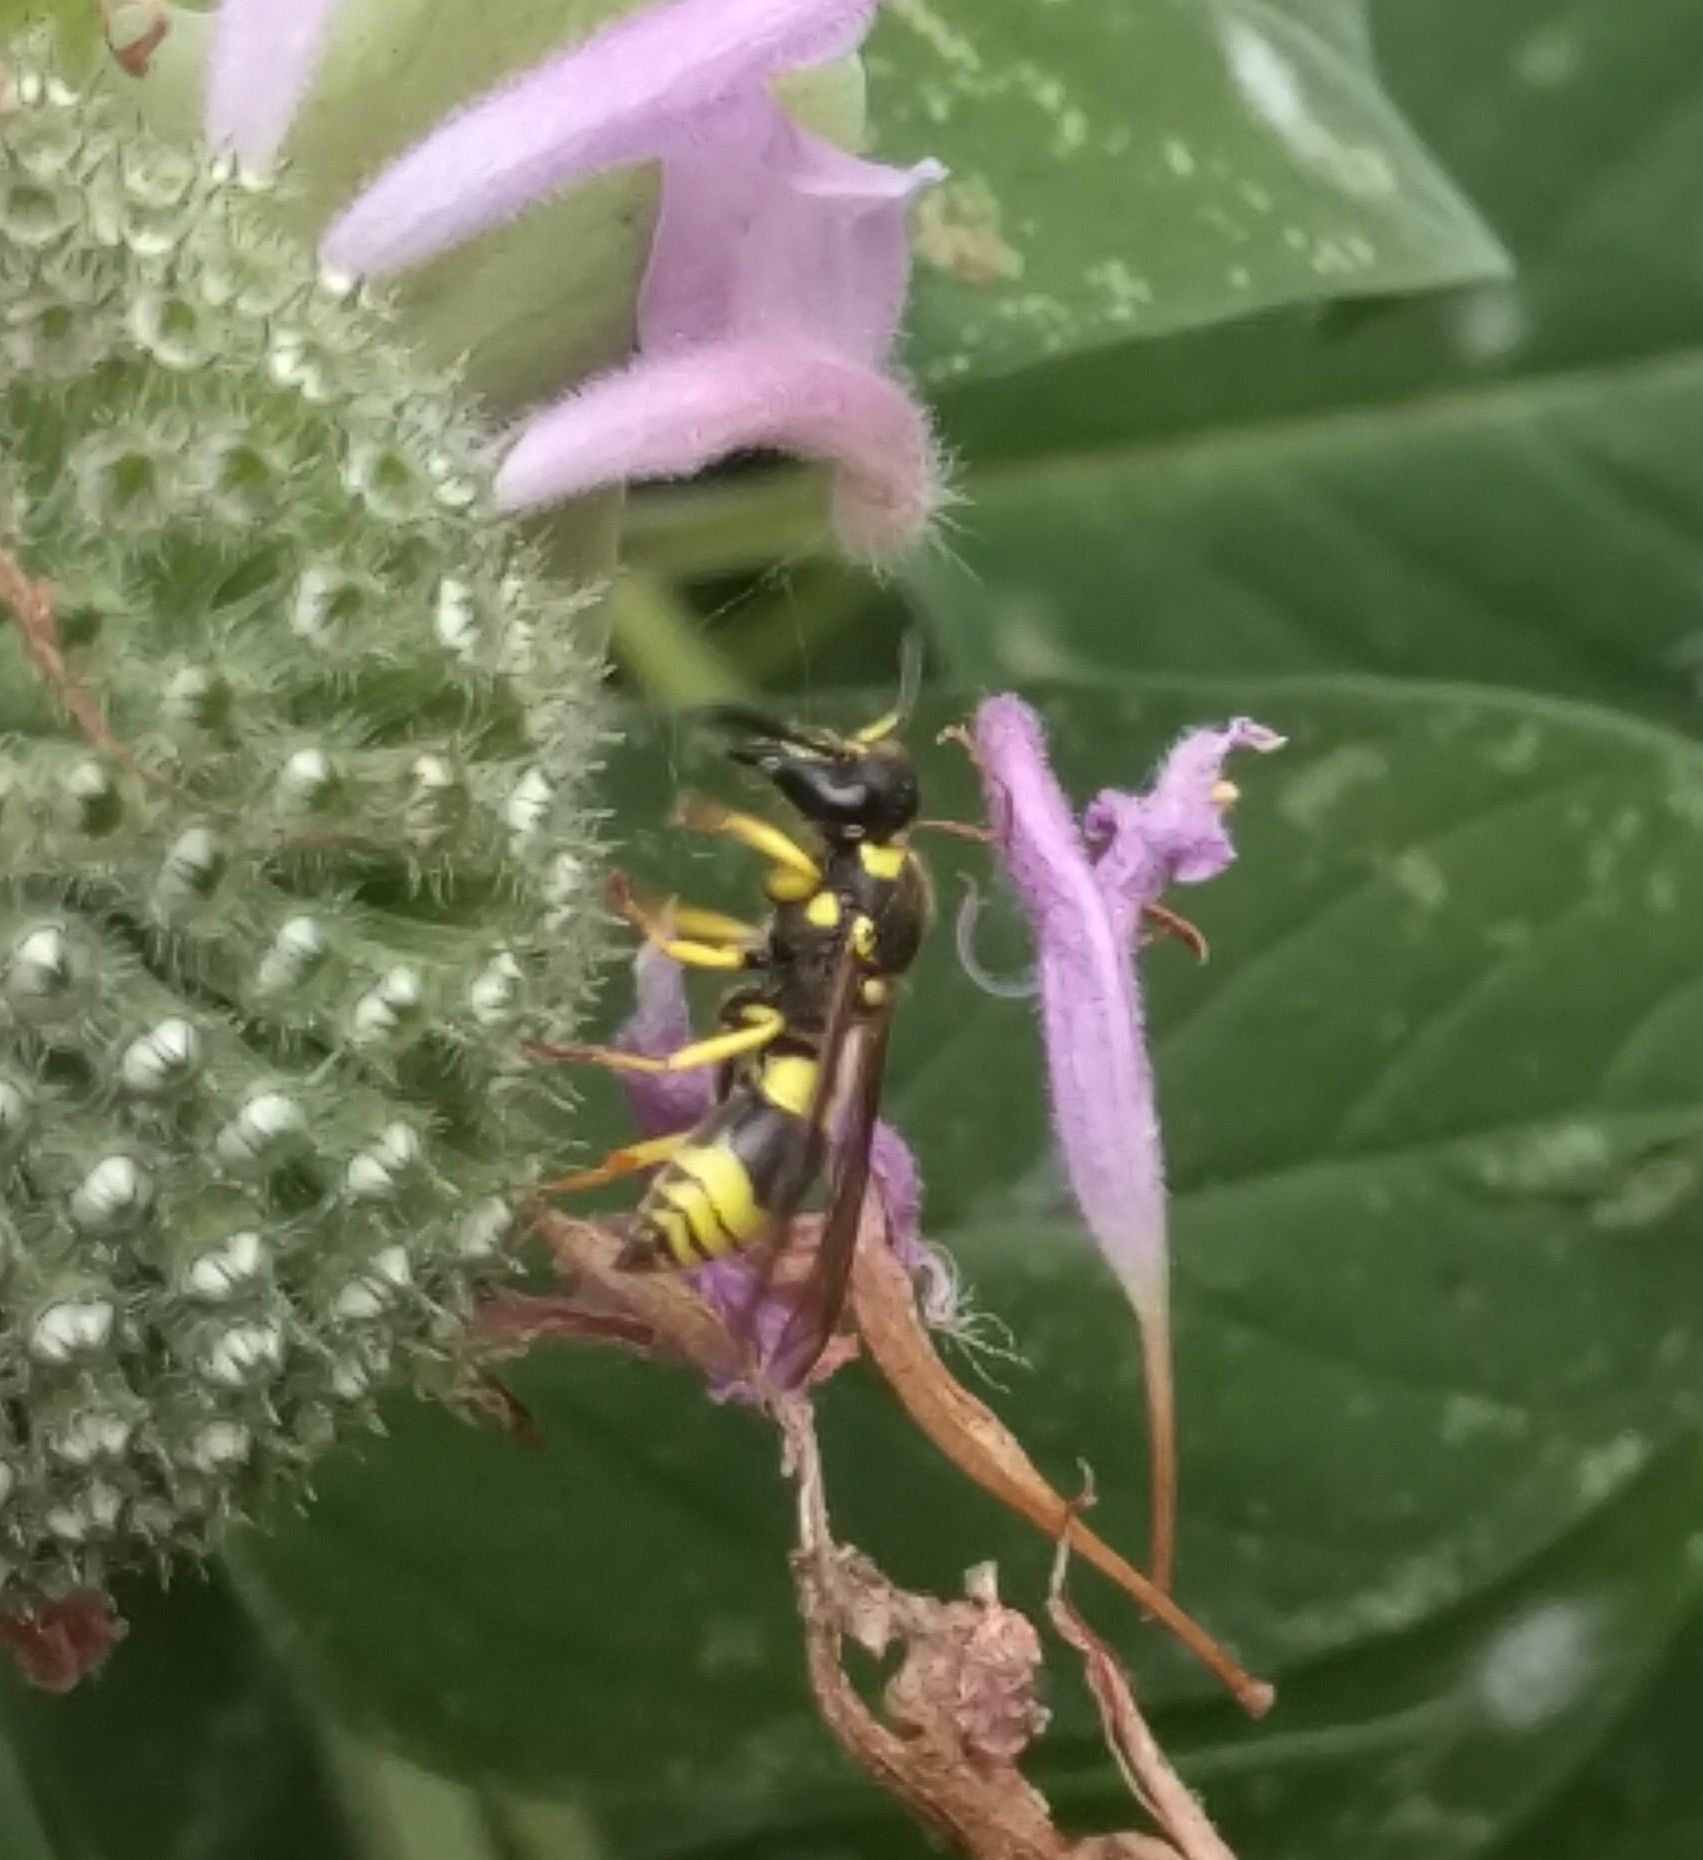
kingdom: Animalia
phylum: Arthropoda
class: Insecta
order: Hymenoptera
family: Vespidae
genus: Ancistrocerus
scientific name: Ancistrocerus gazella
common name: European tube wasp
